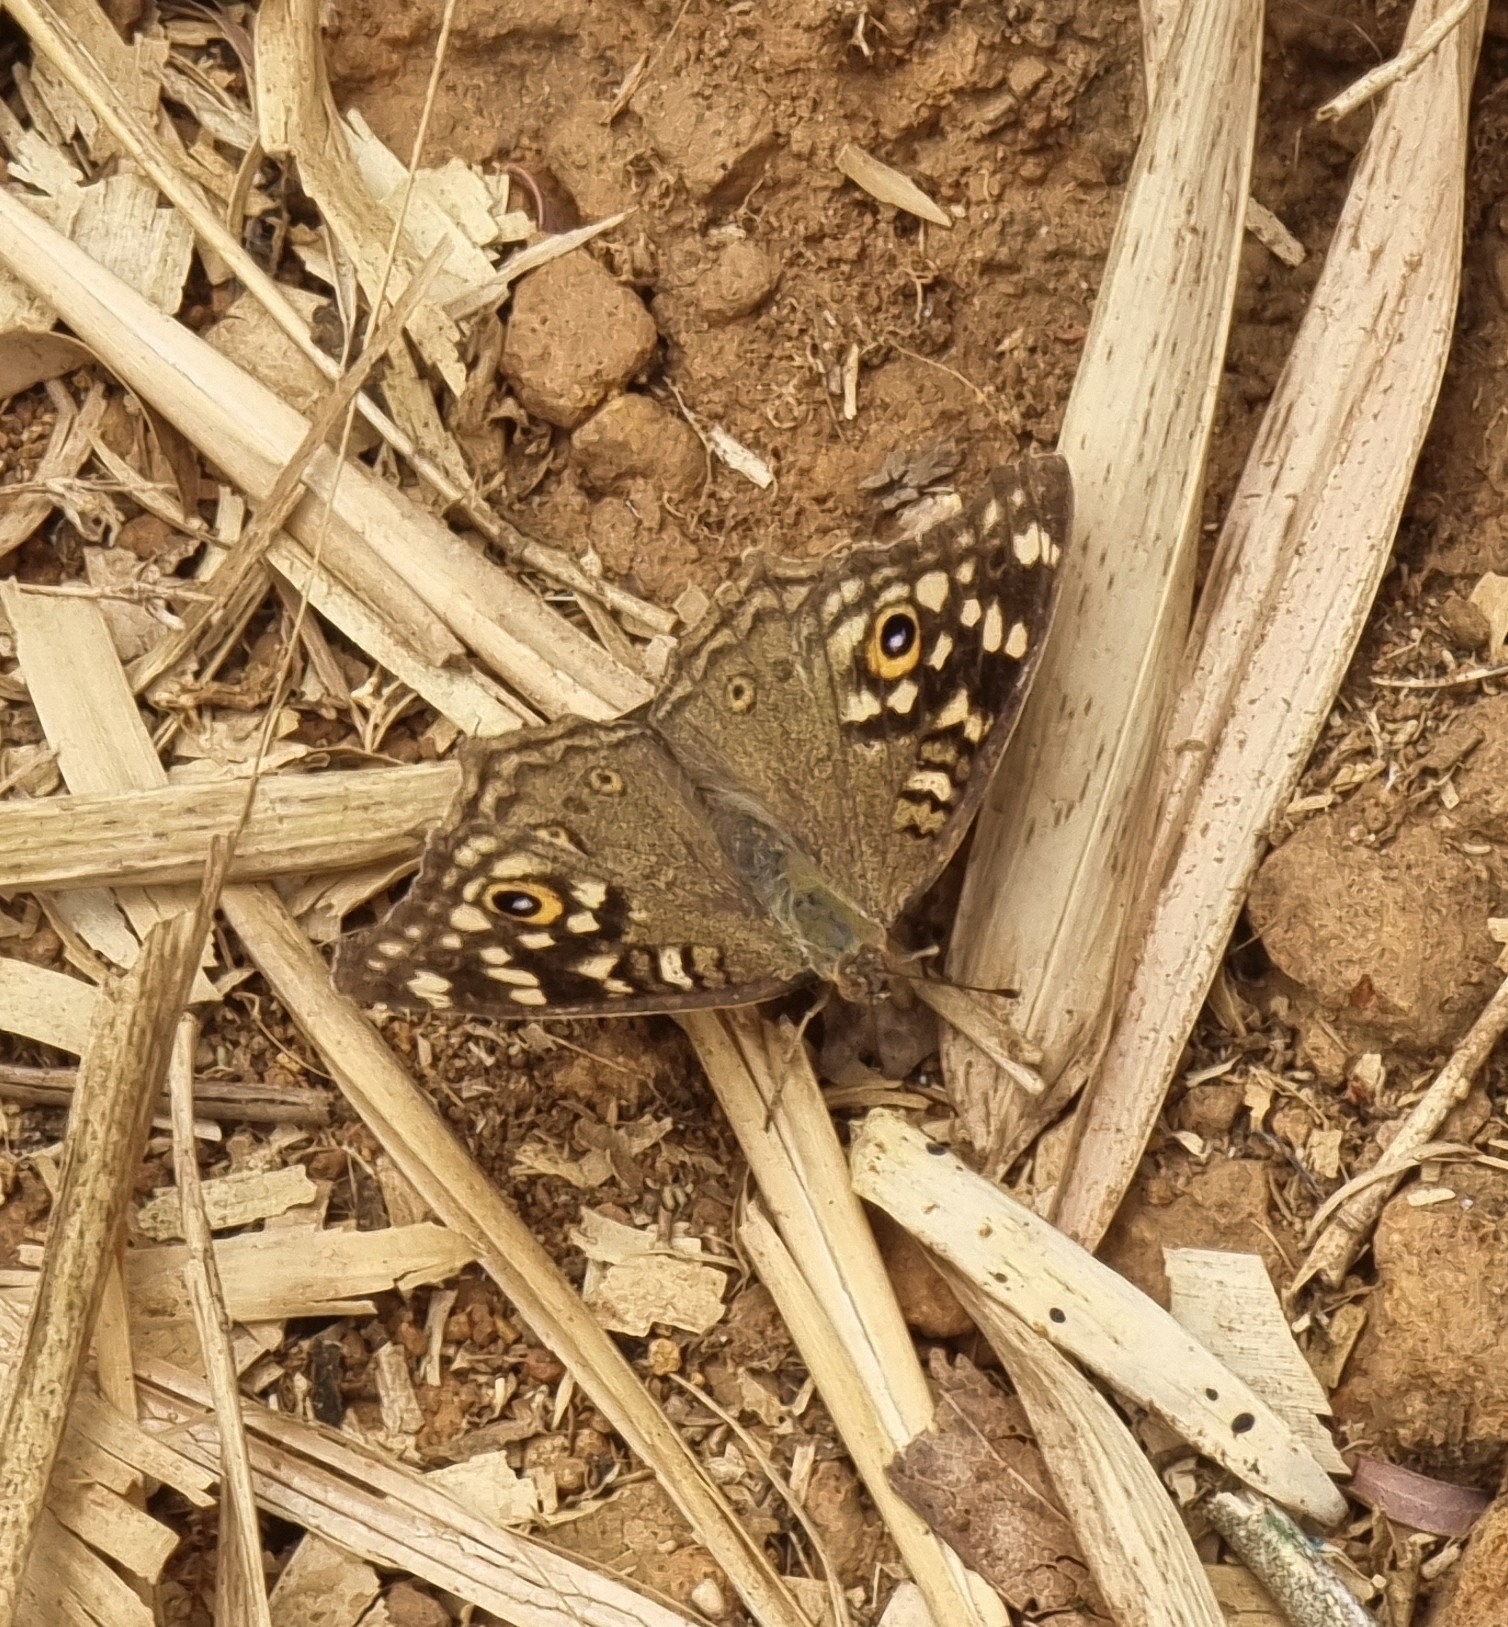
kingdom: Animalia
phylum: Arthropoda
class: Insecta
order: Lepidoptera
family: Nymphalidae
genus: Junonia
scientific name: Junonia lemonias
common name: Lemon pansy
